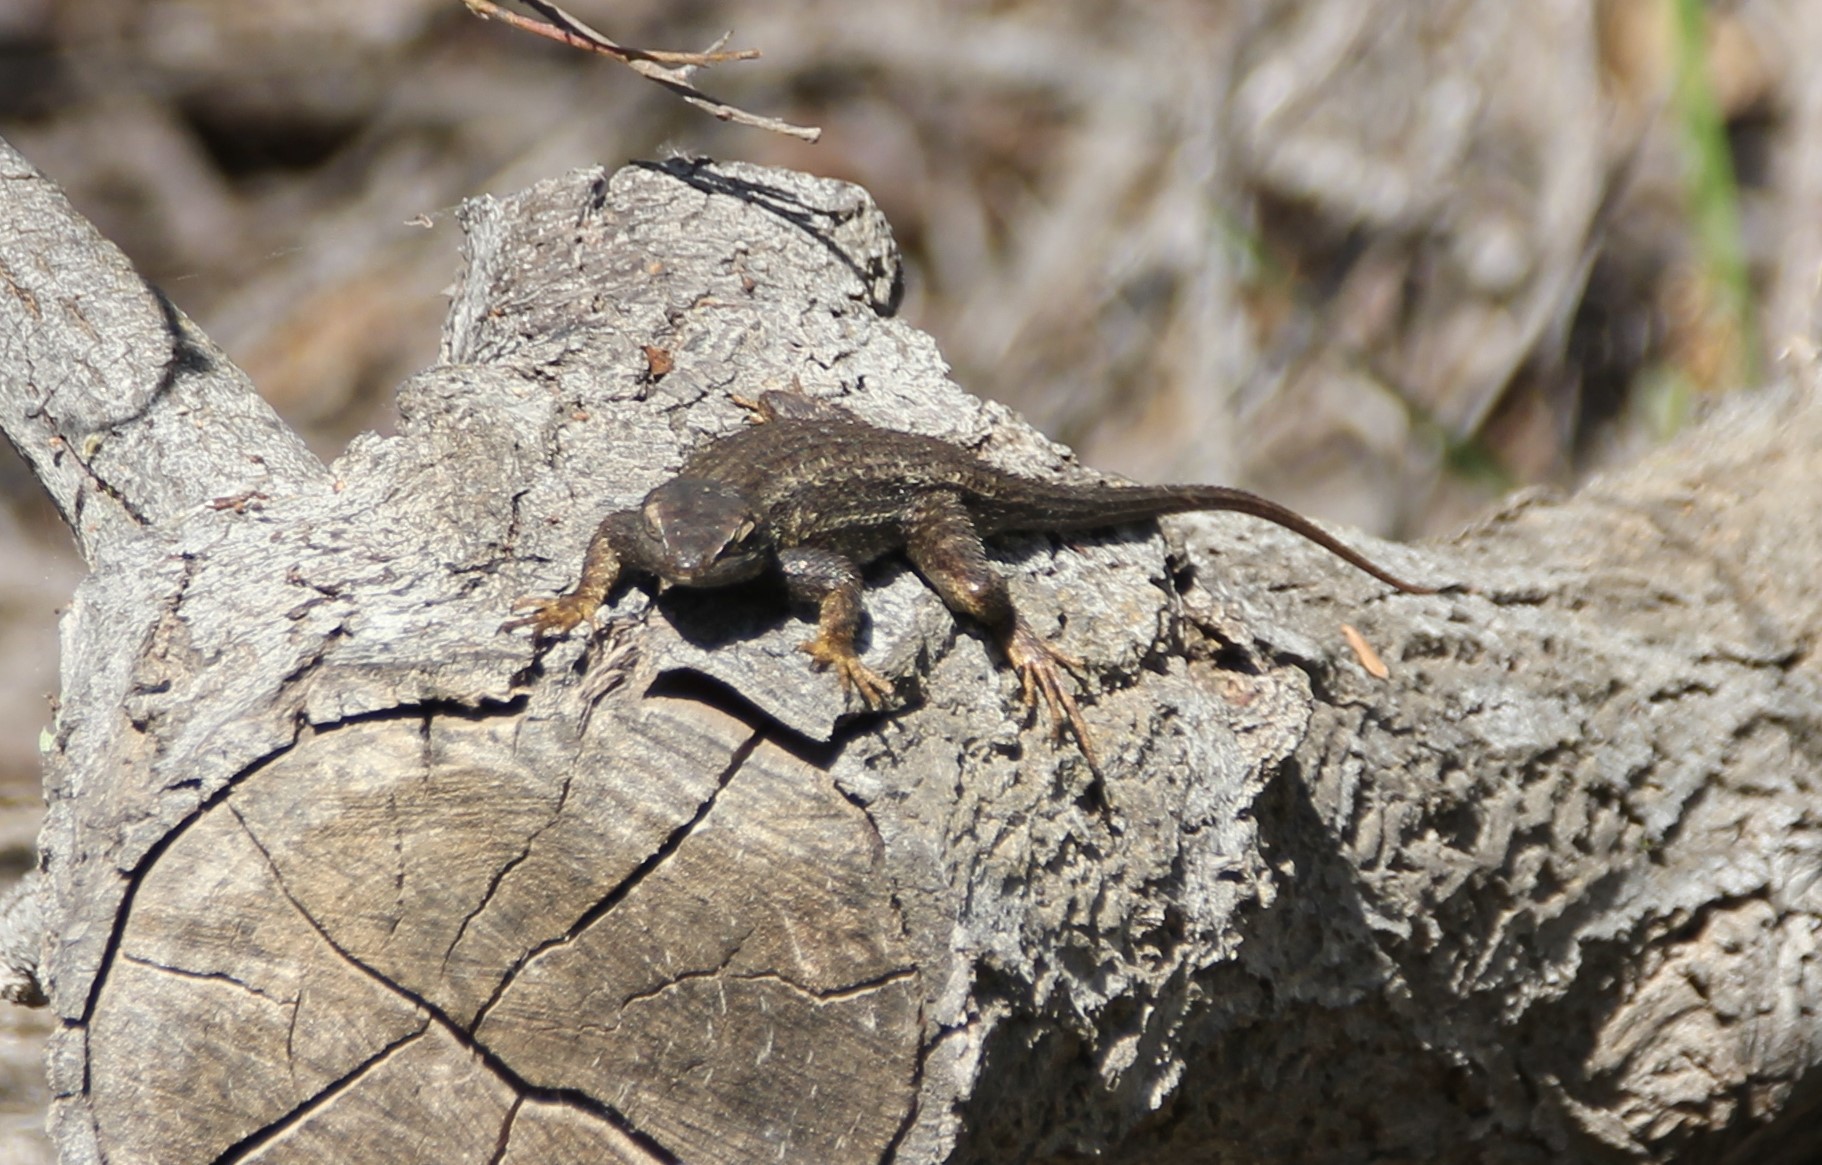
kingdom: Animalia
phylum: Chordata
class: Squamata
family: Phrynosomatidae
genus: Sceloporus
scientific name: Sceloporus occidentalis
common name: Western fence lizard
